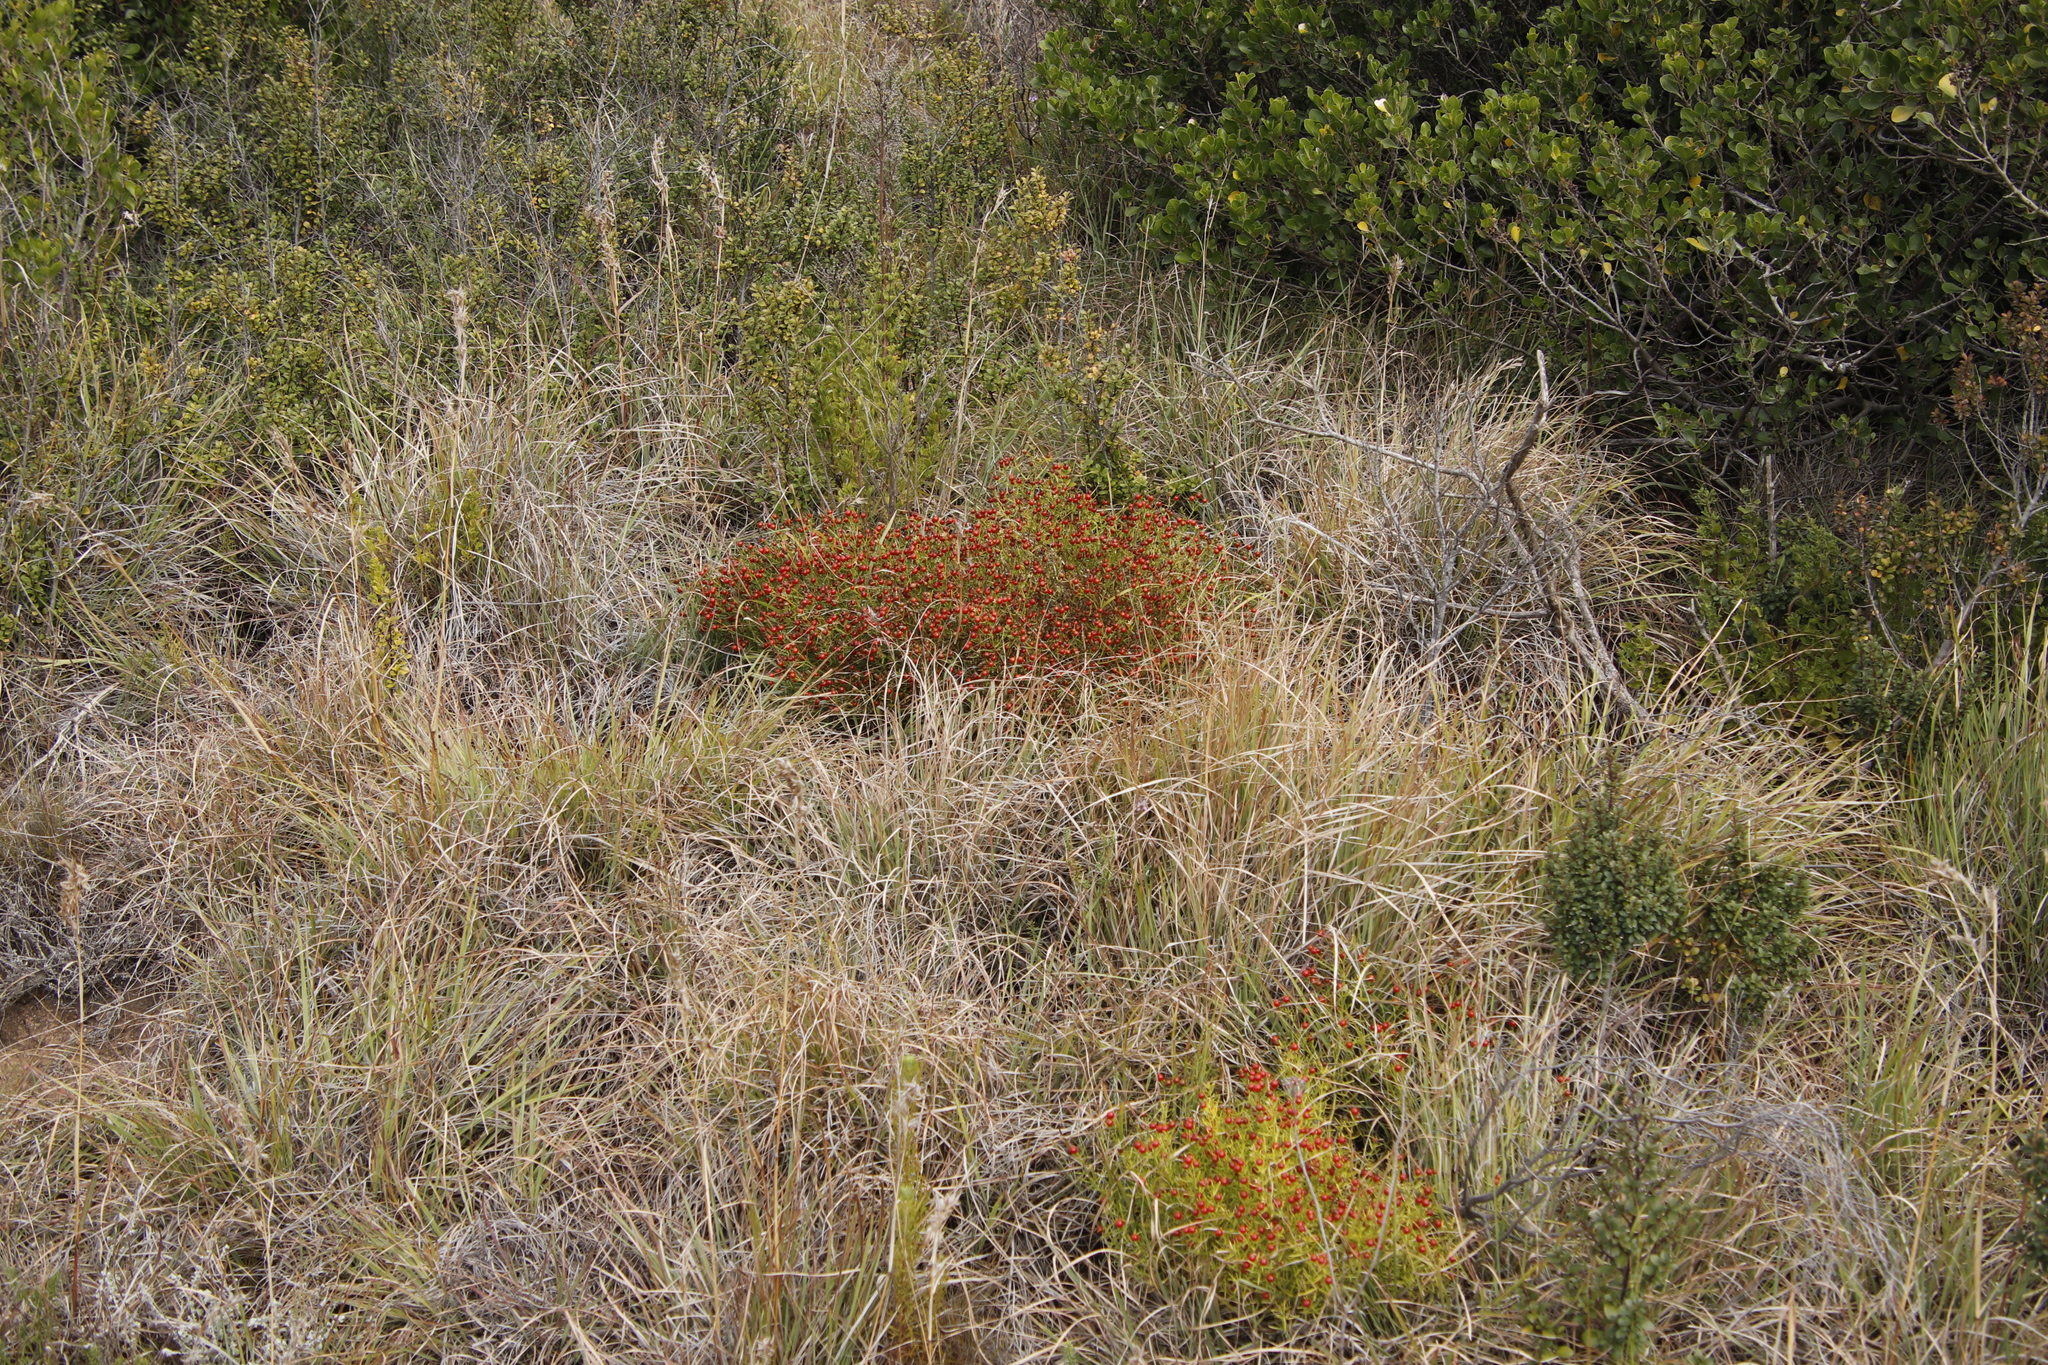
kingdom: Plantae
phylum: Tracheophyta
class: Magnoliopsida
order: Gentianales
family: Gentianaceae
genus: Chironia
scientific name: Chironia baccifera
